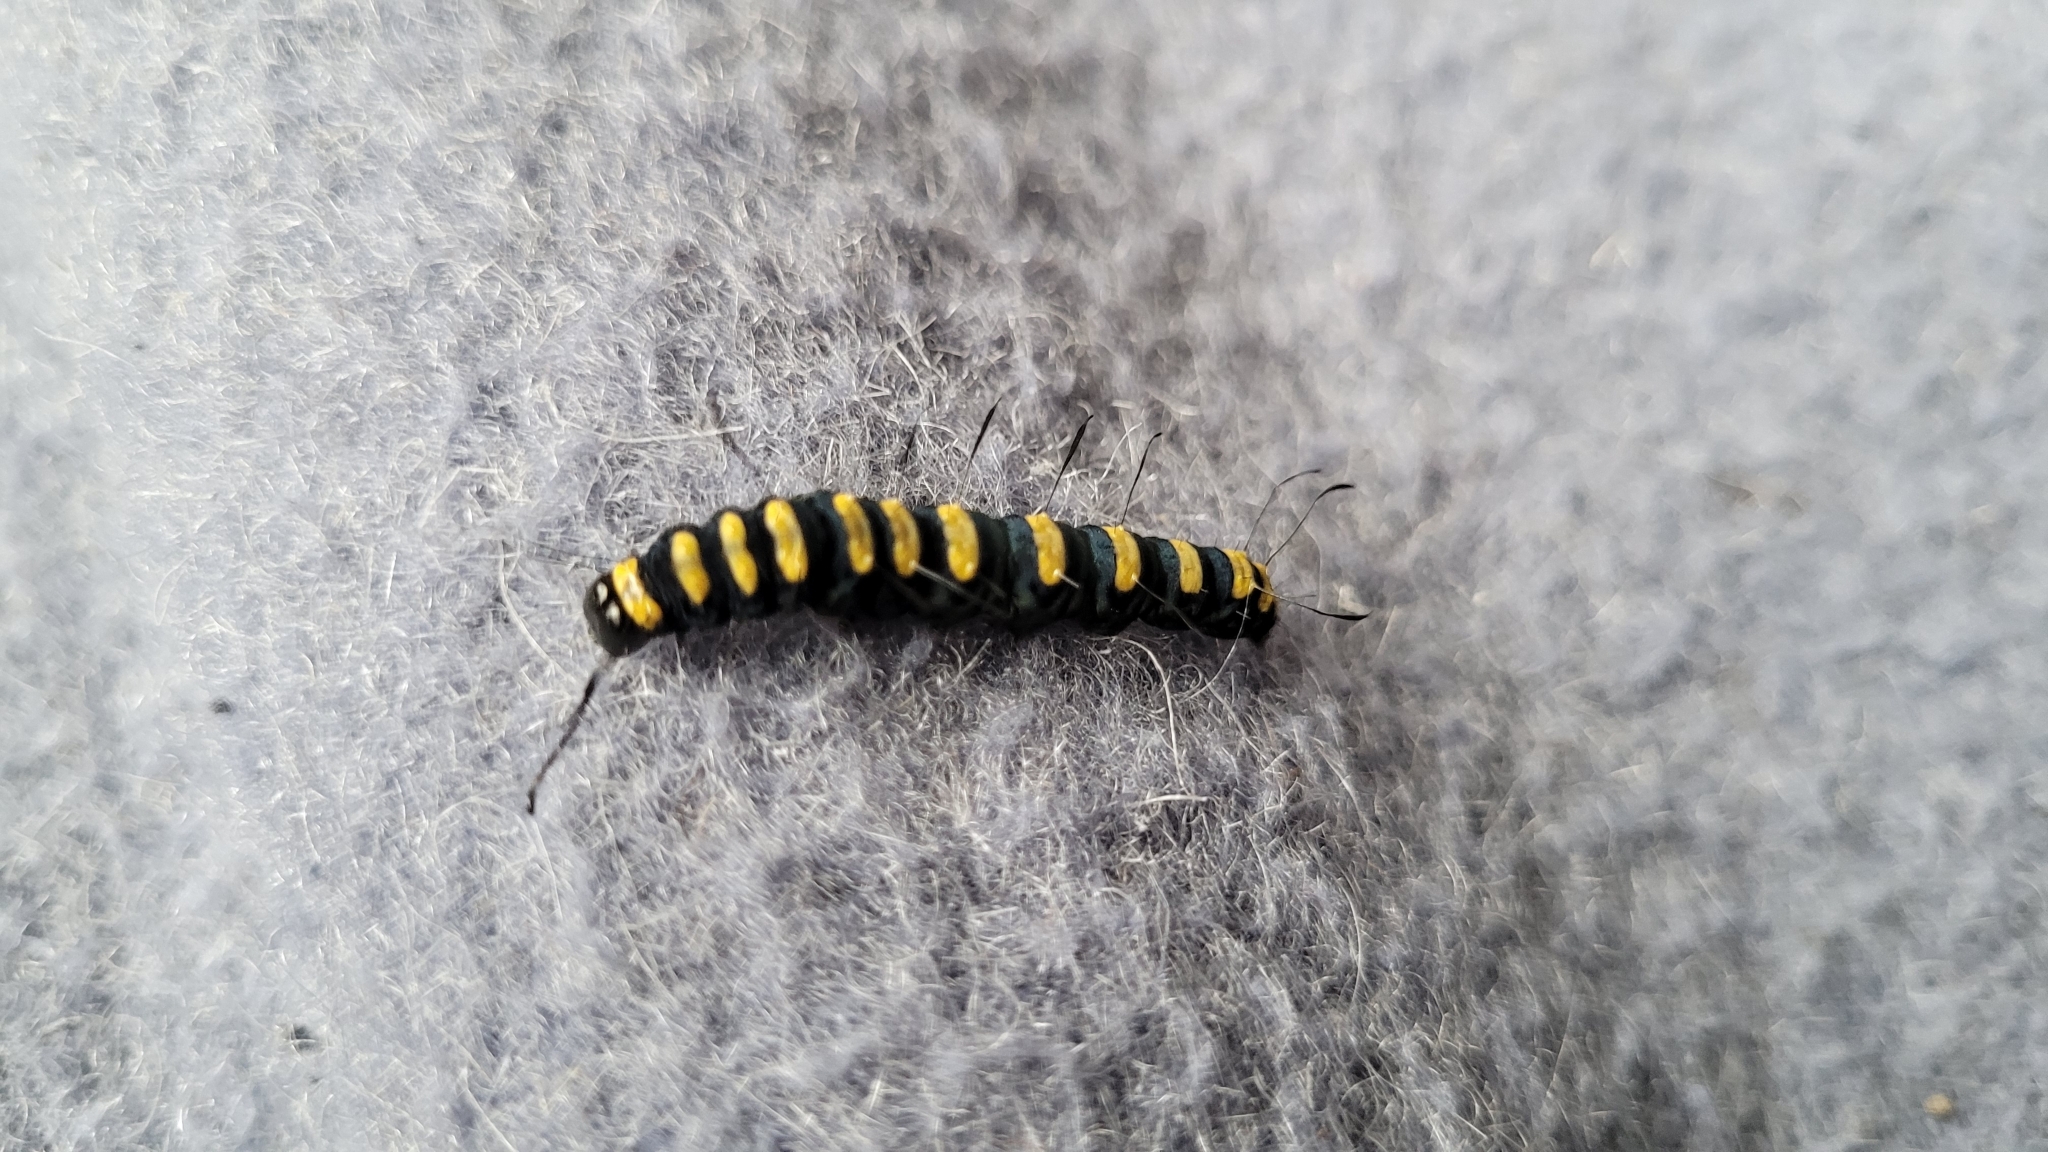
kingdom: Animalia
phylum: Arthropoda
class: Insecta
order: Lepidoptera
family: Noctuidae
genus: Acronicta
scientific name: Acronicta alni
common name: Alder moth
